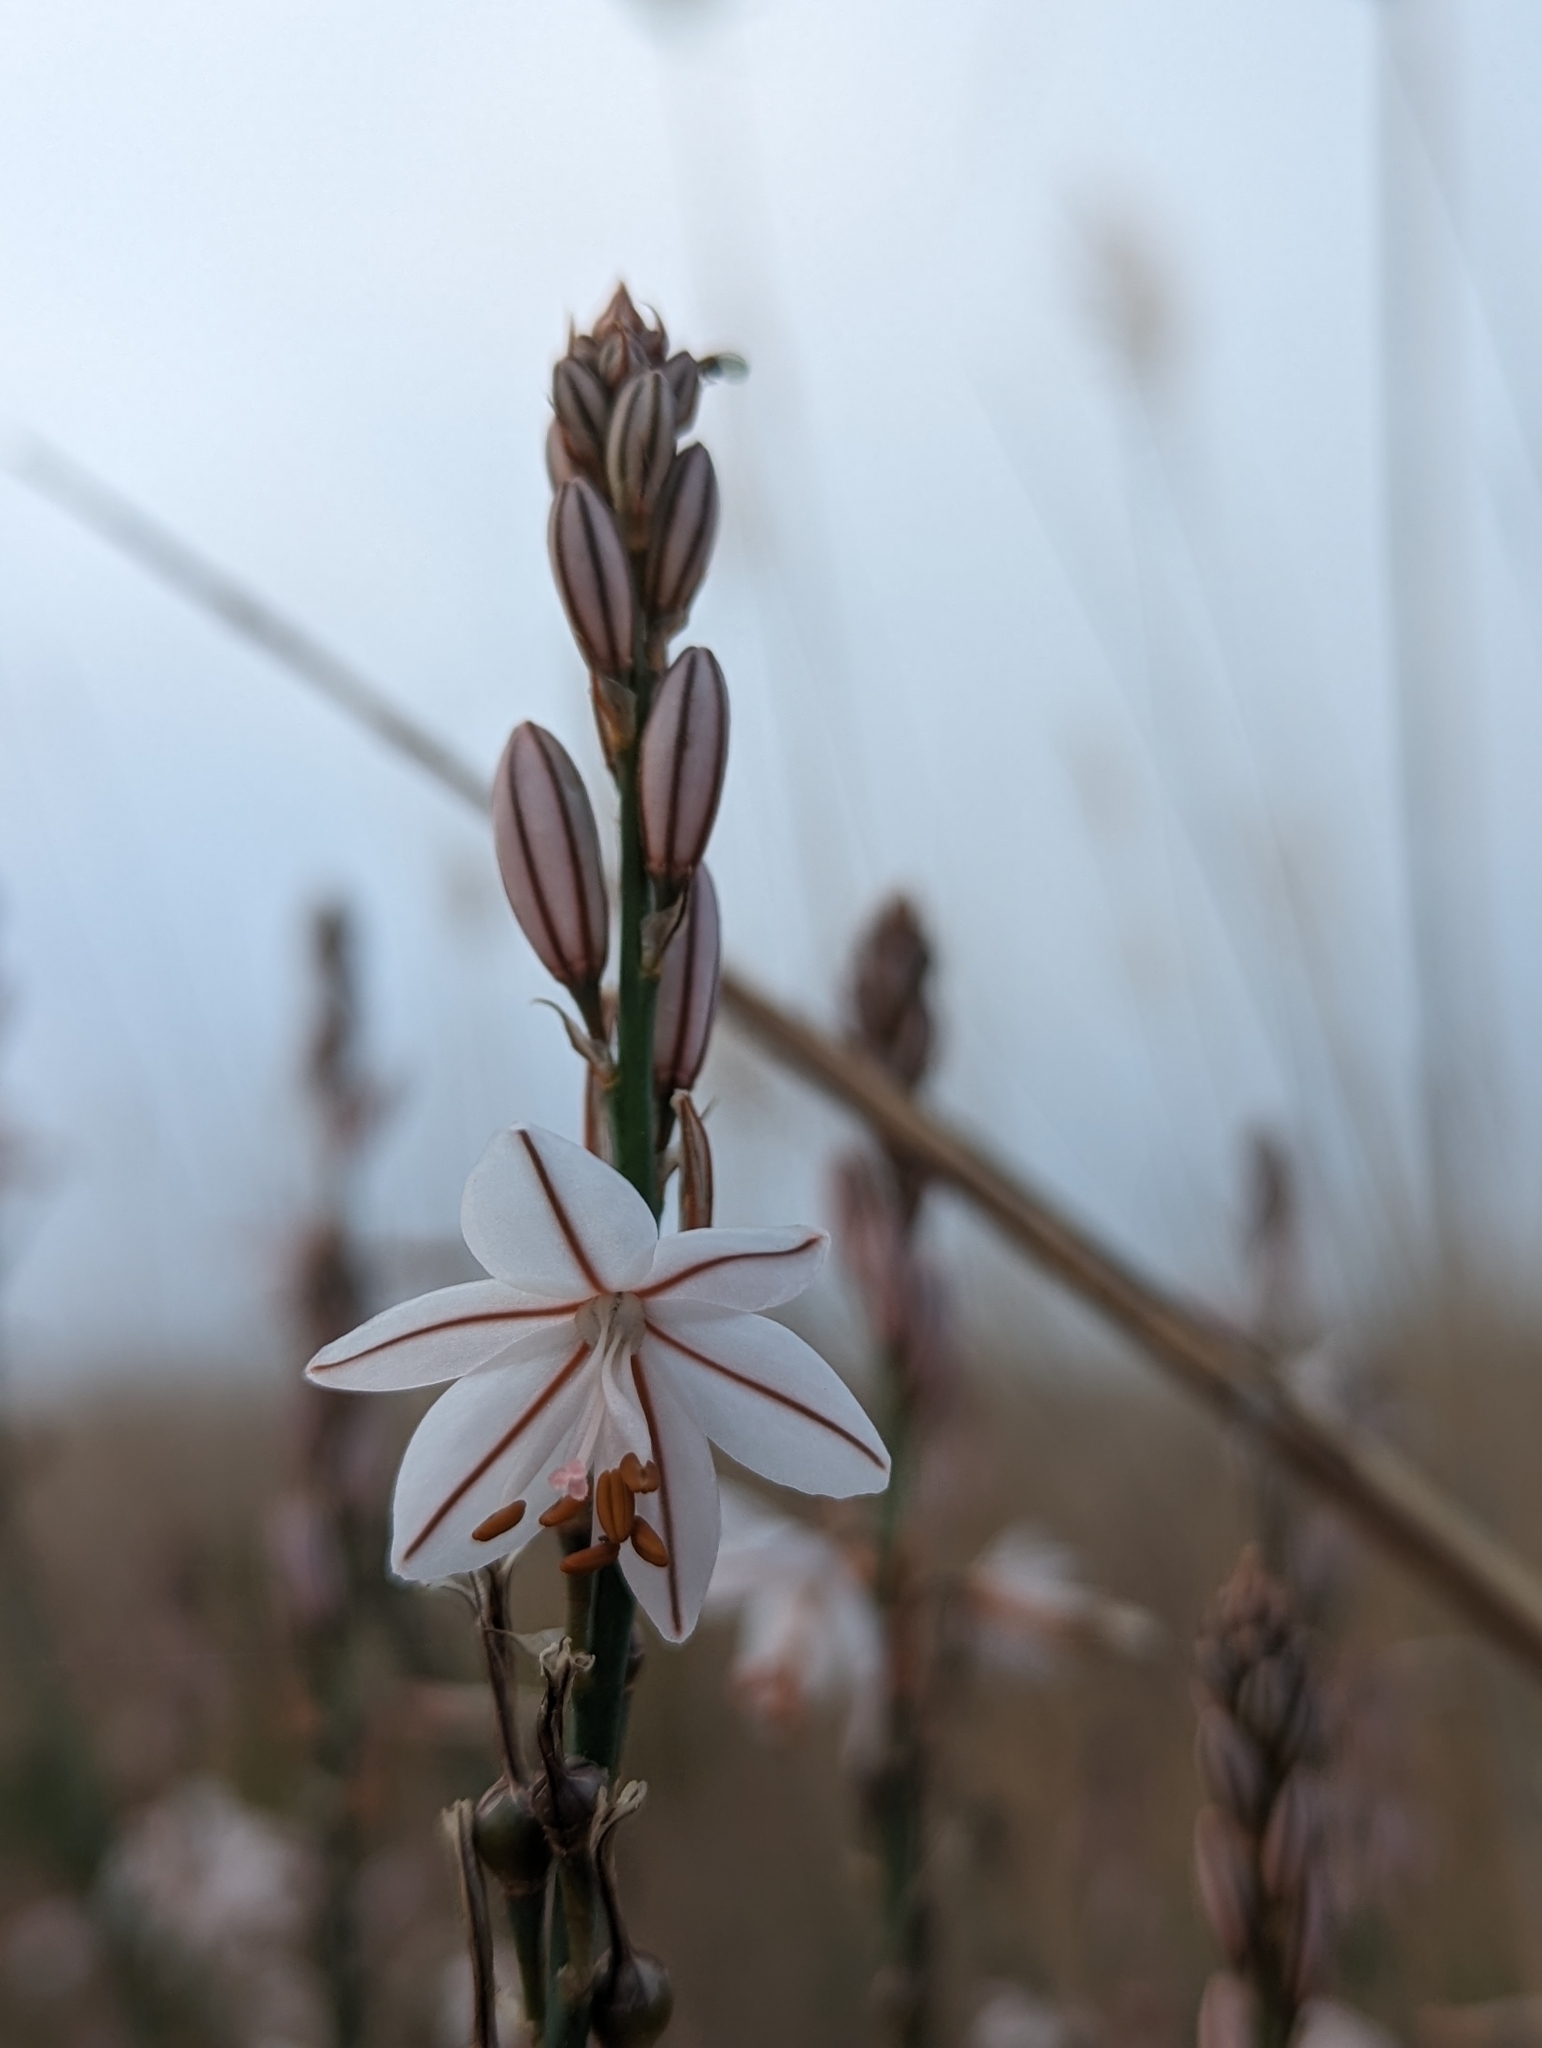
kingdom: Plantae
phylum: Tracheophyta
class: Liliopsida
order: Asparagales
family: Asphodelaceae
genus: Asphodelus
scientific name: Asphodelus fistulosus
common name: Onionweed
